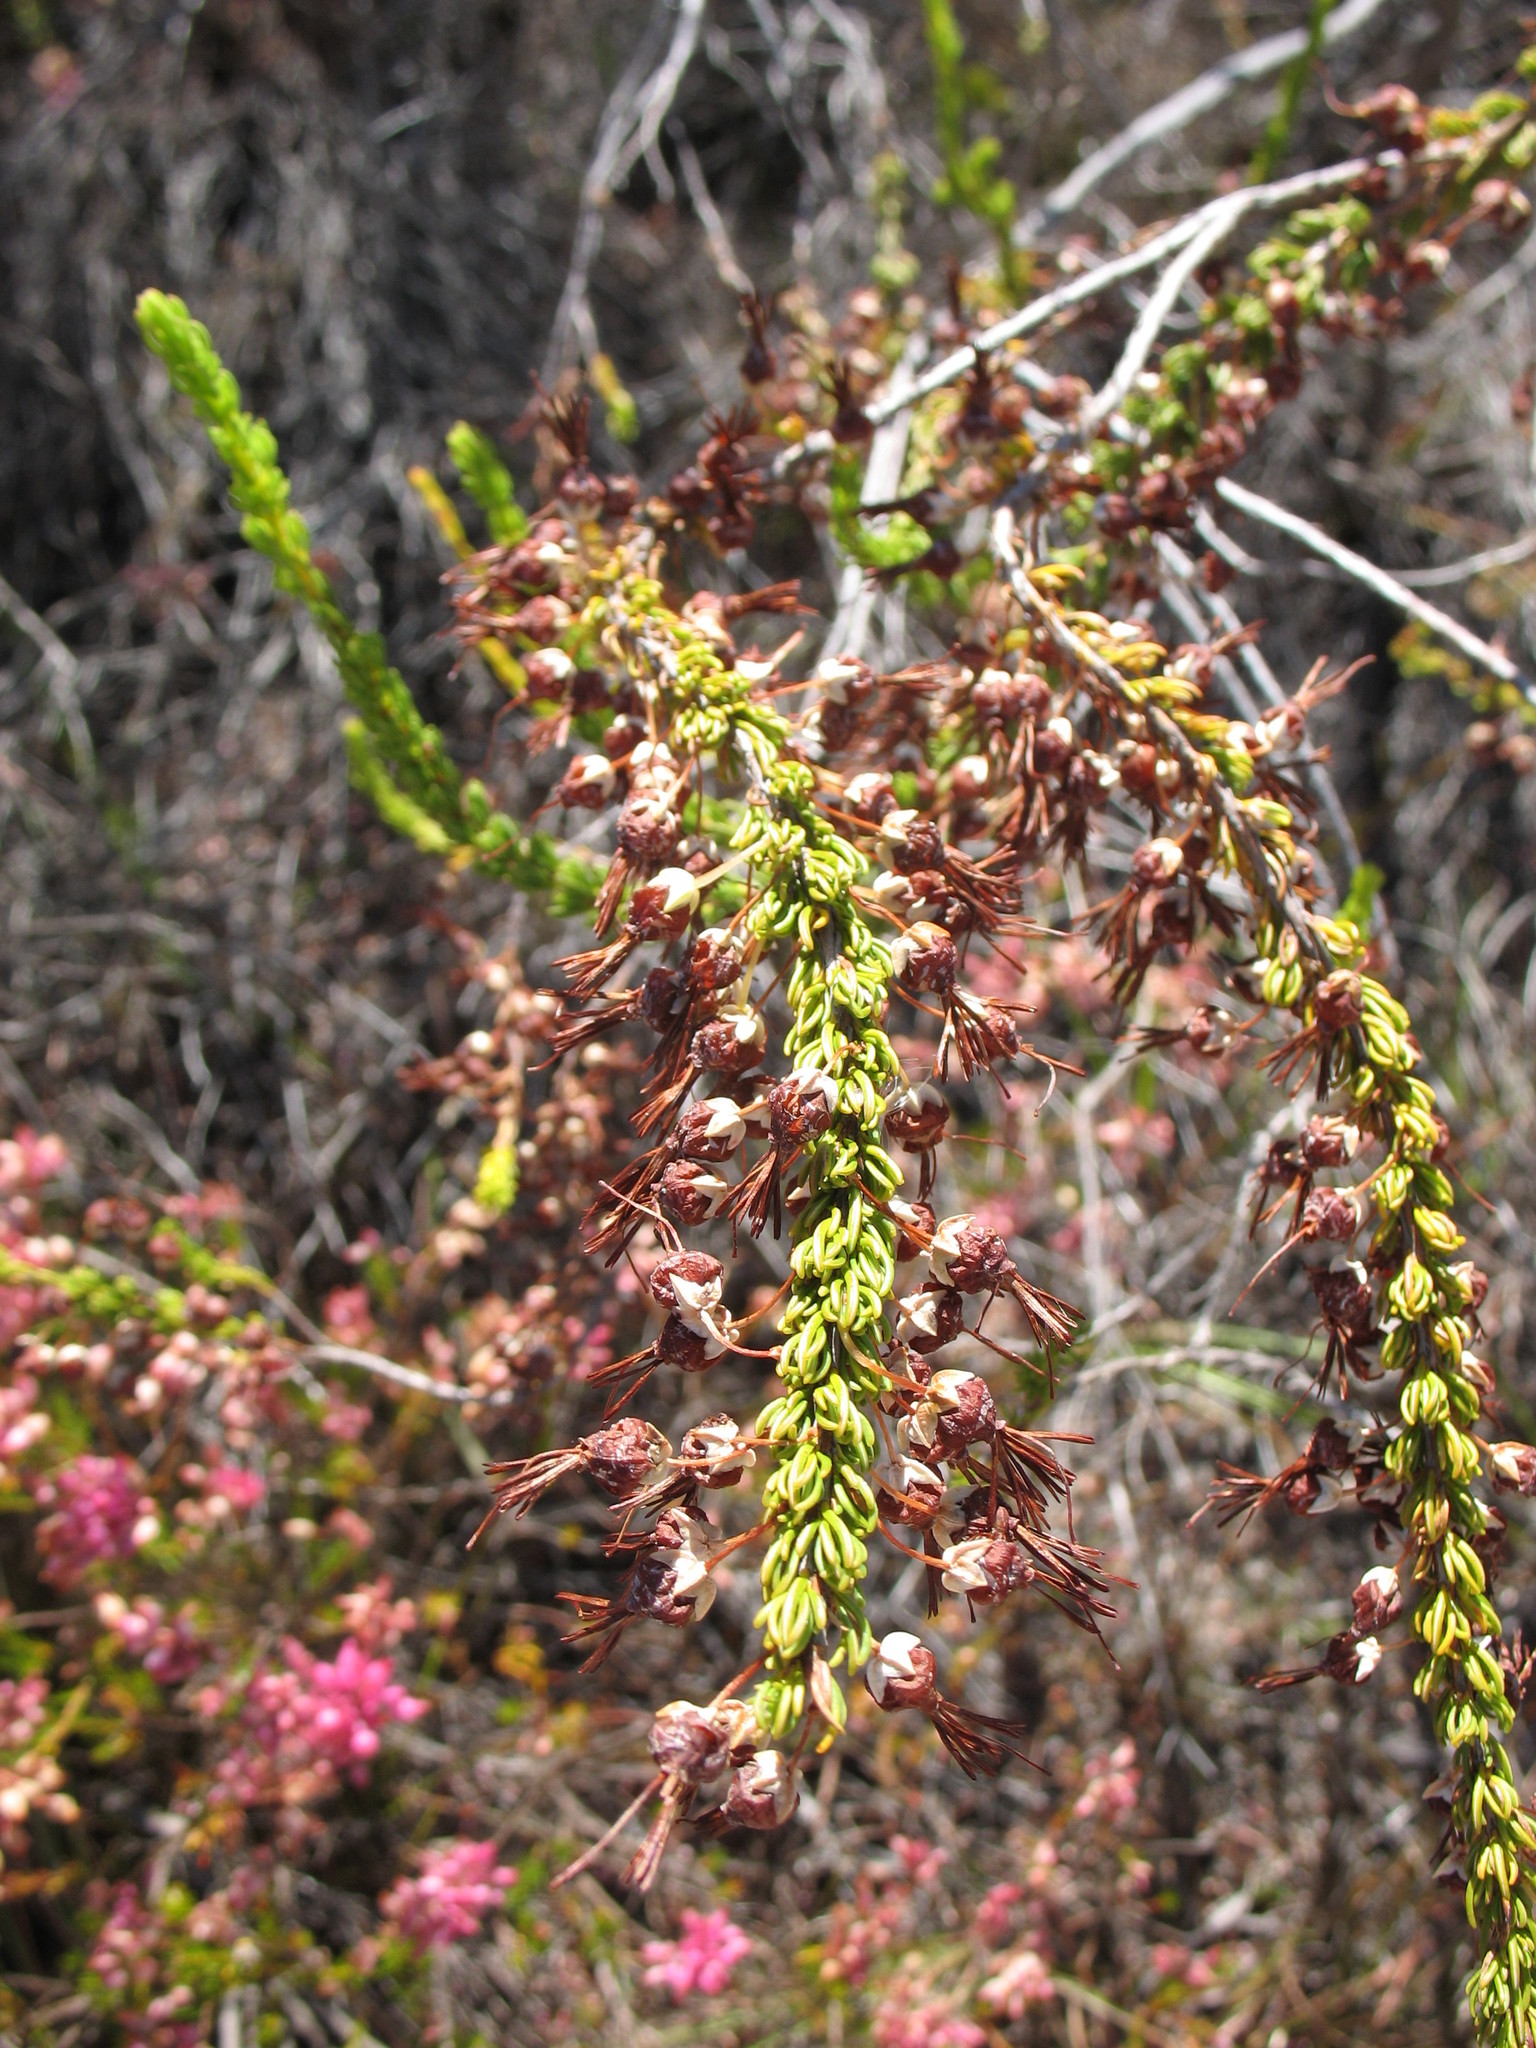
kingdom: Plantae
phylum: Tracheophyta
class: Magnoliopsida
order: Ericales
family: Ericaceae
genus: Erica
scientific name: Erica plukenetii
